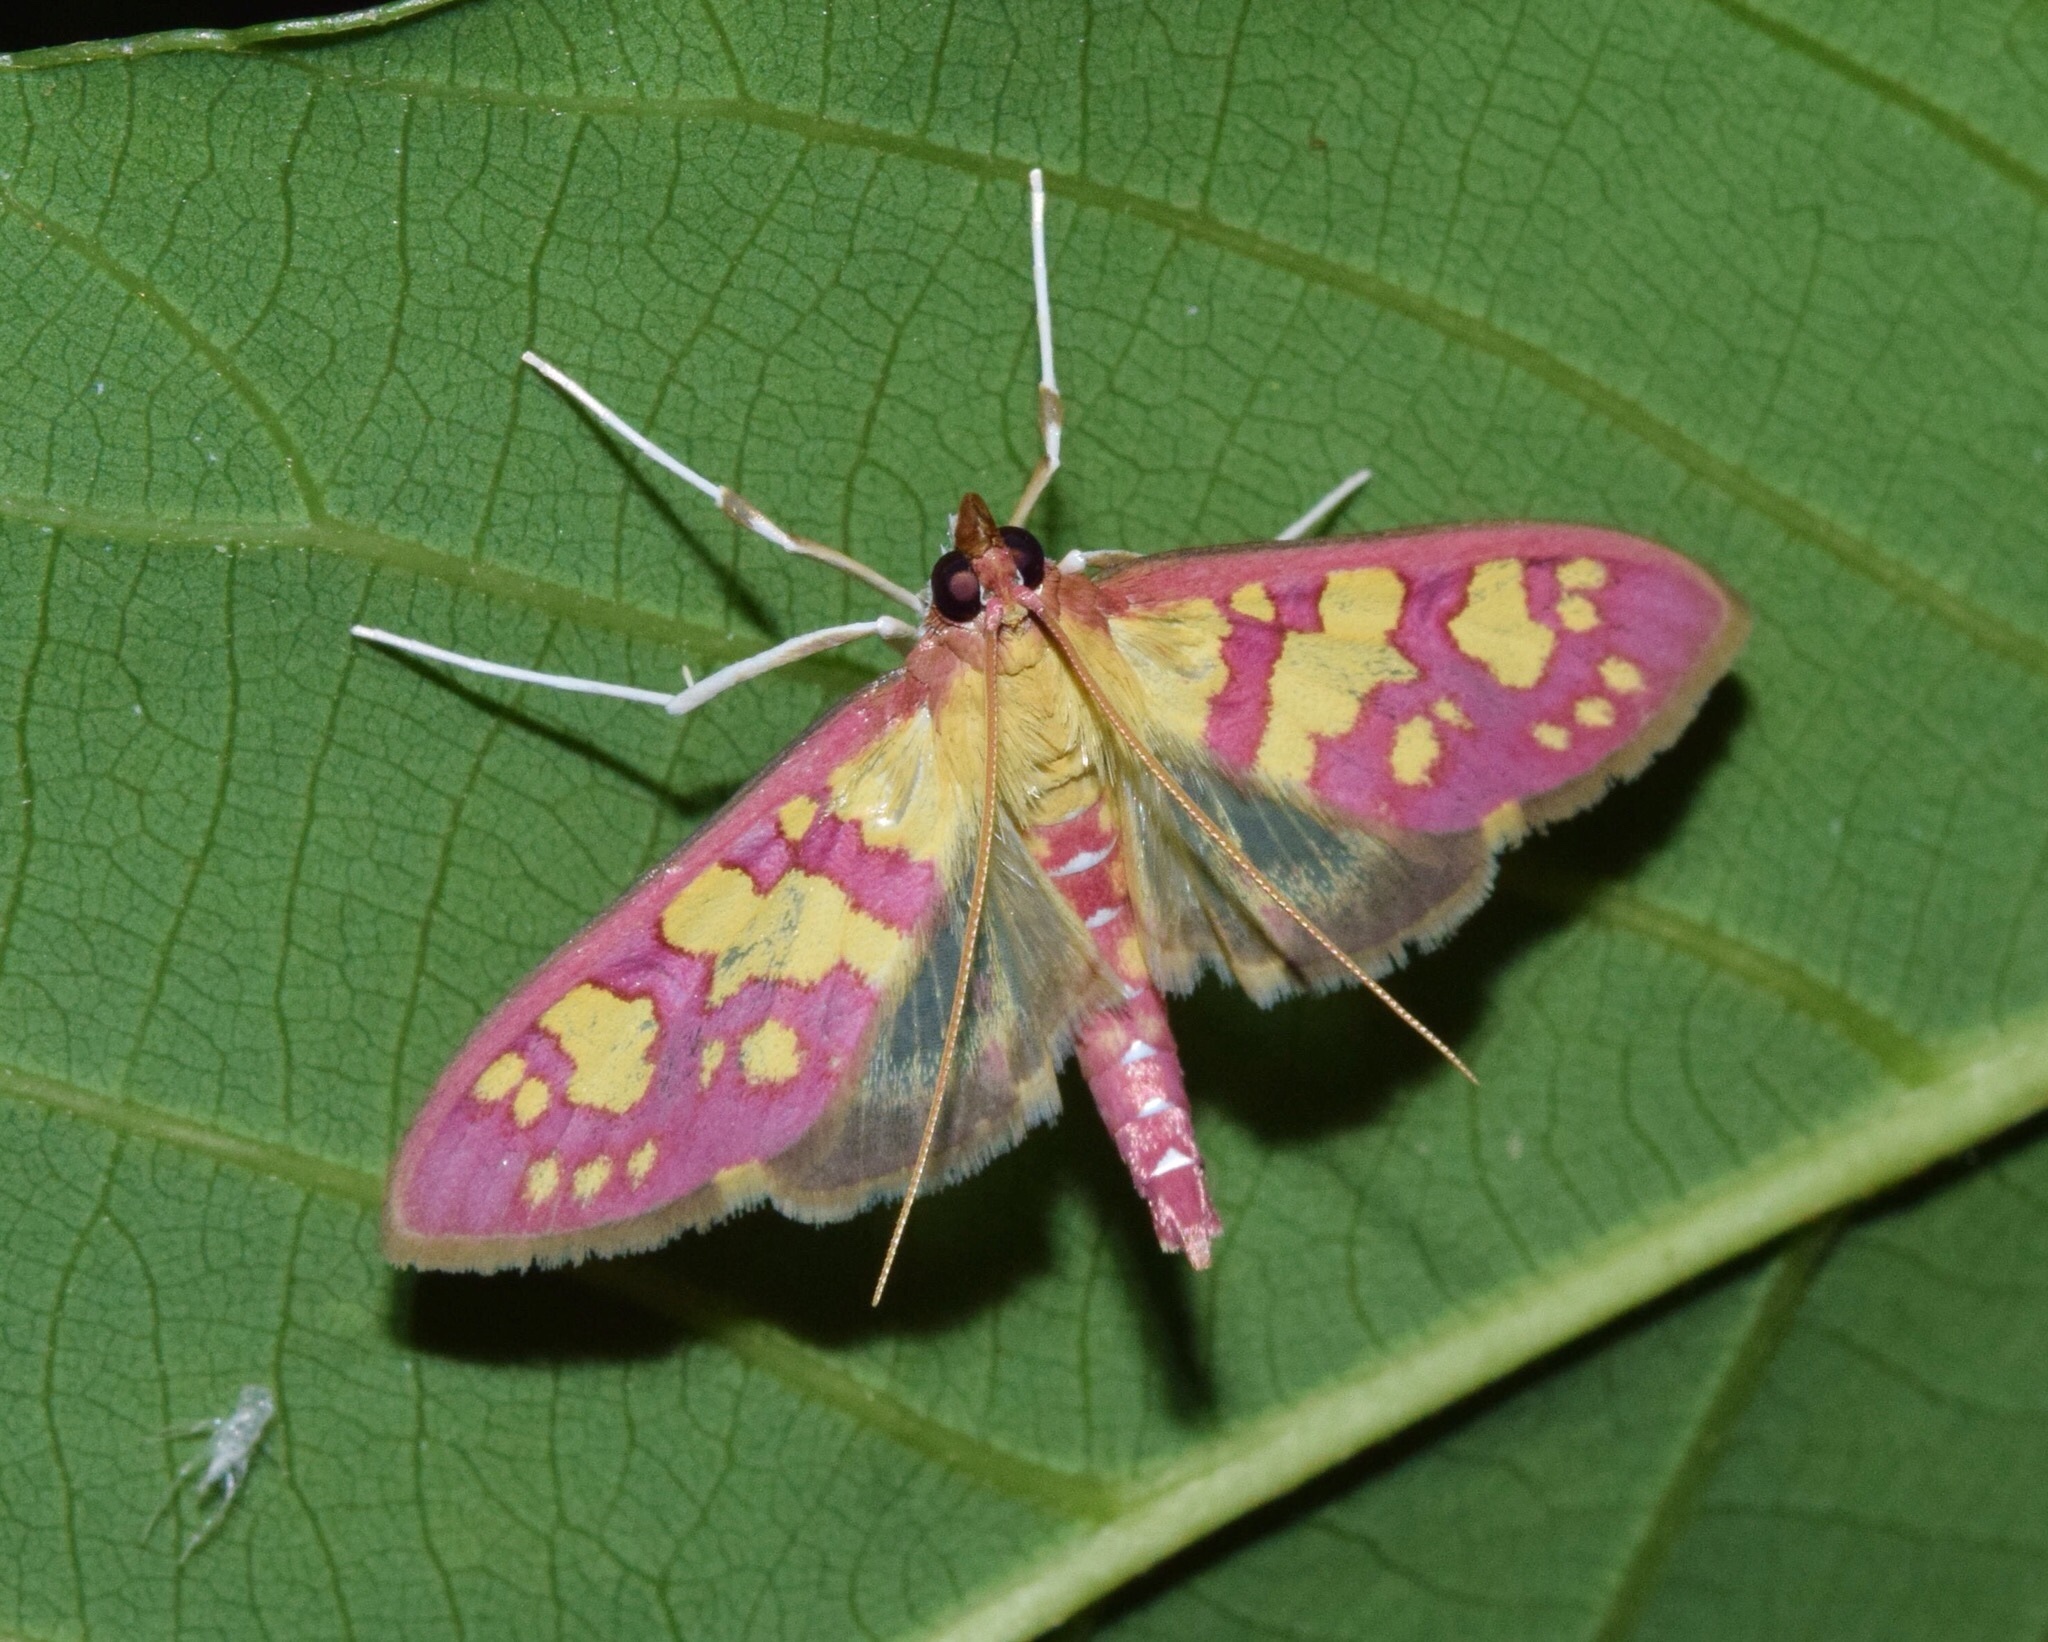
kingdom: Animalia
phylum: Arthropoda
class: Insecta
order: Lepidoptera
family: Crambidae
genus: Ischnurges
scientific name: Ischnurges Stenochora lancinalis
